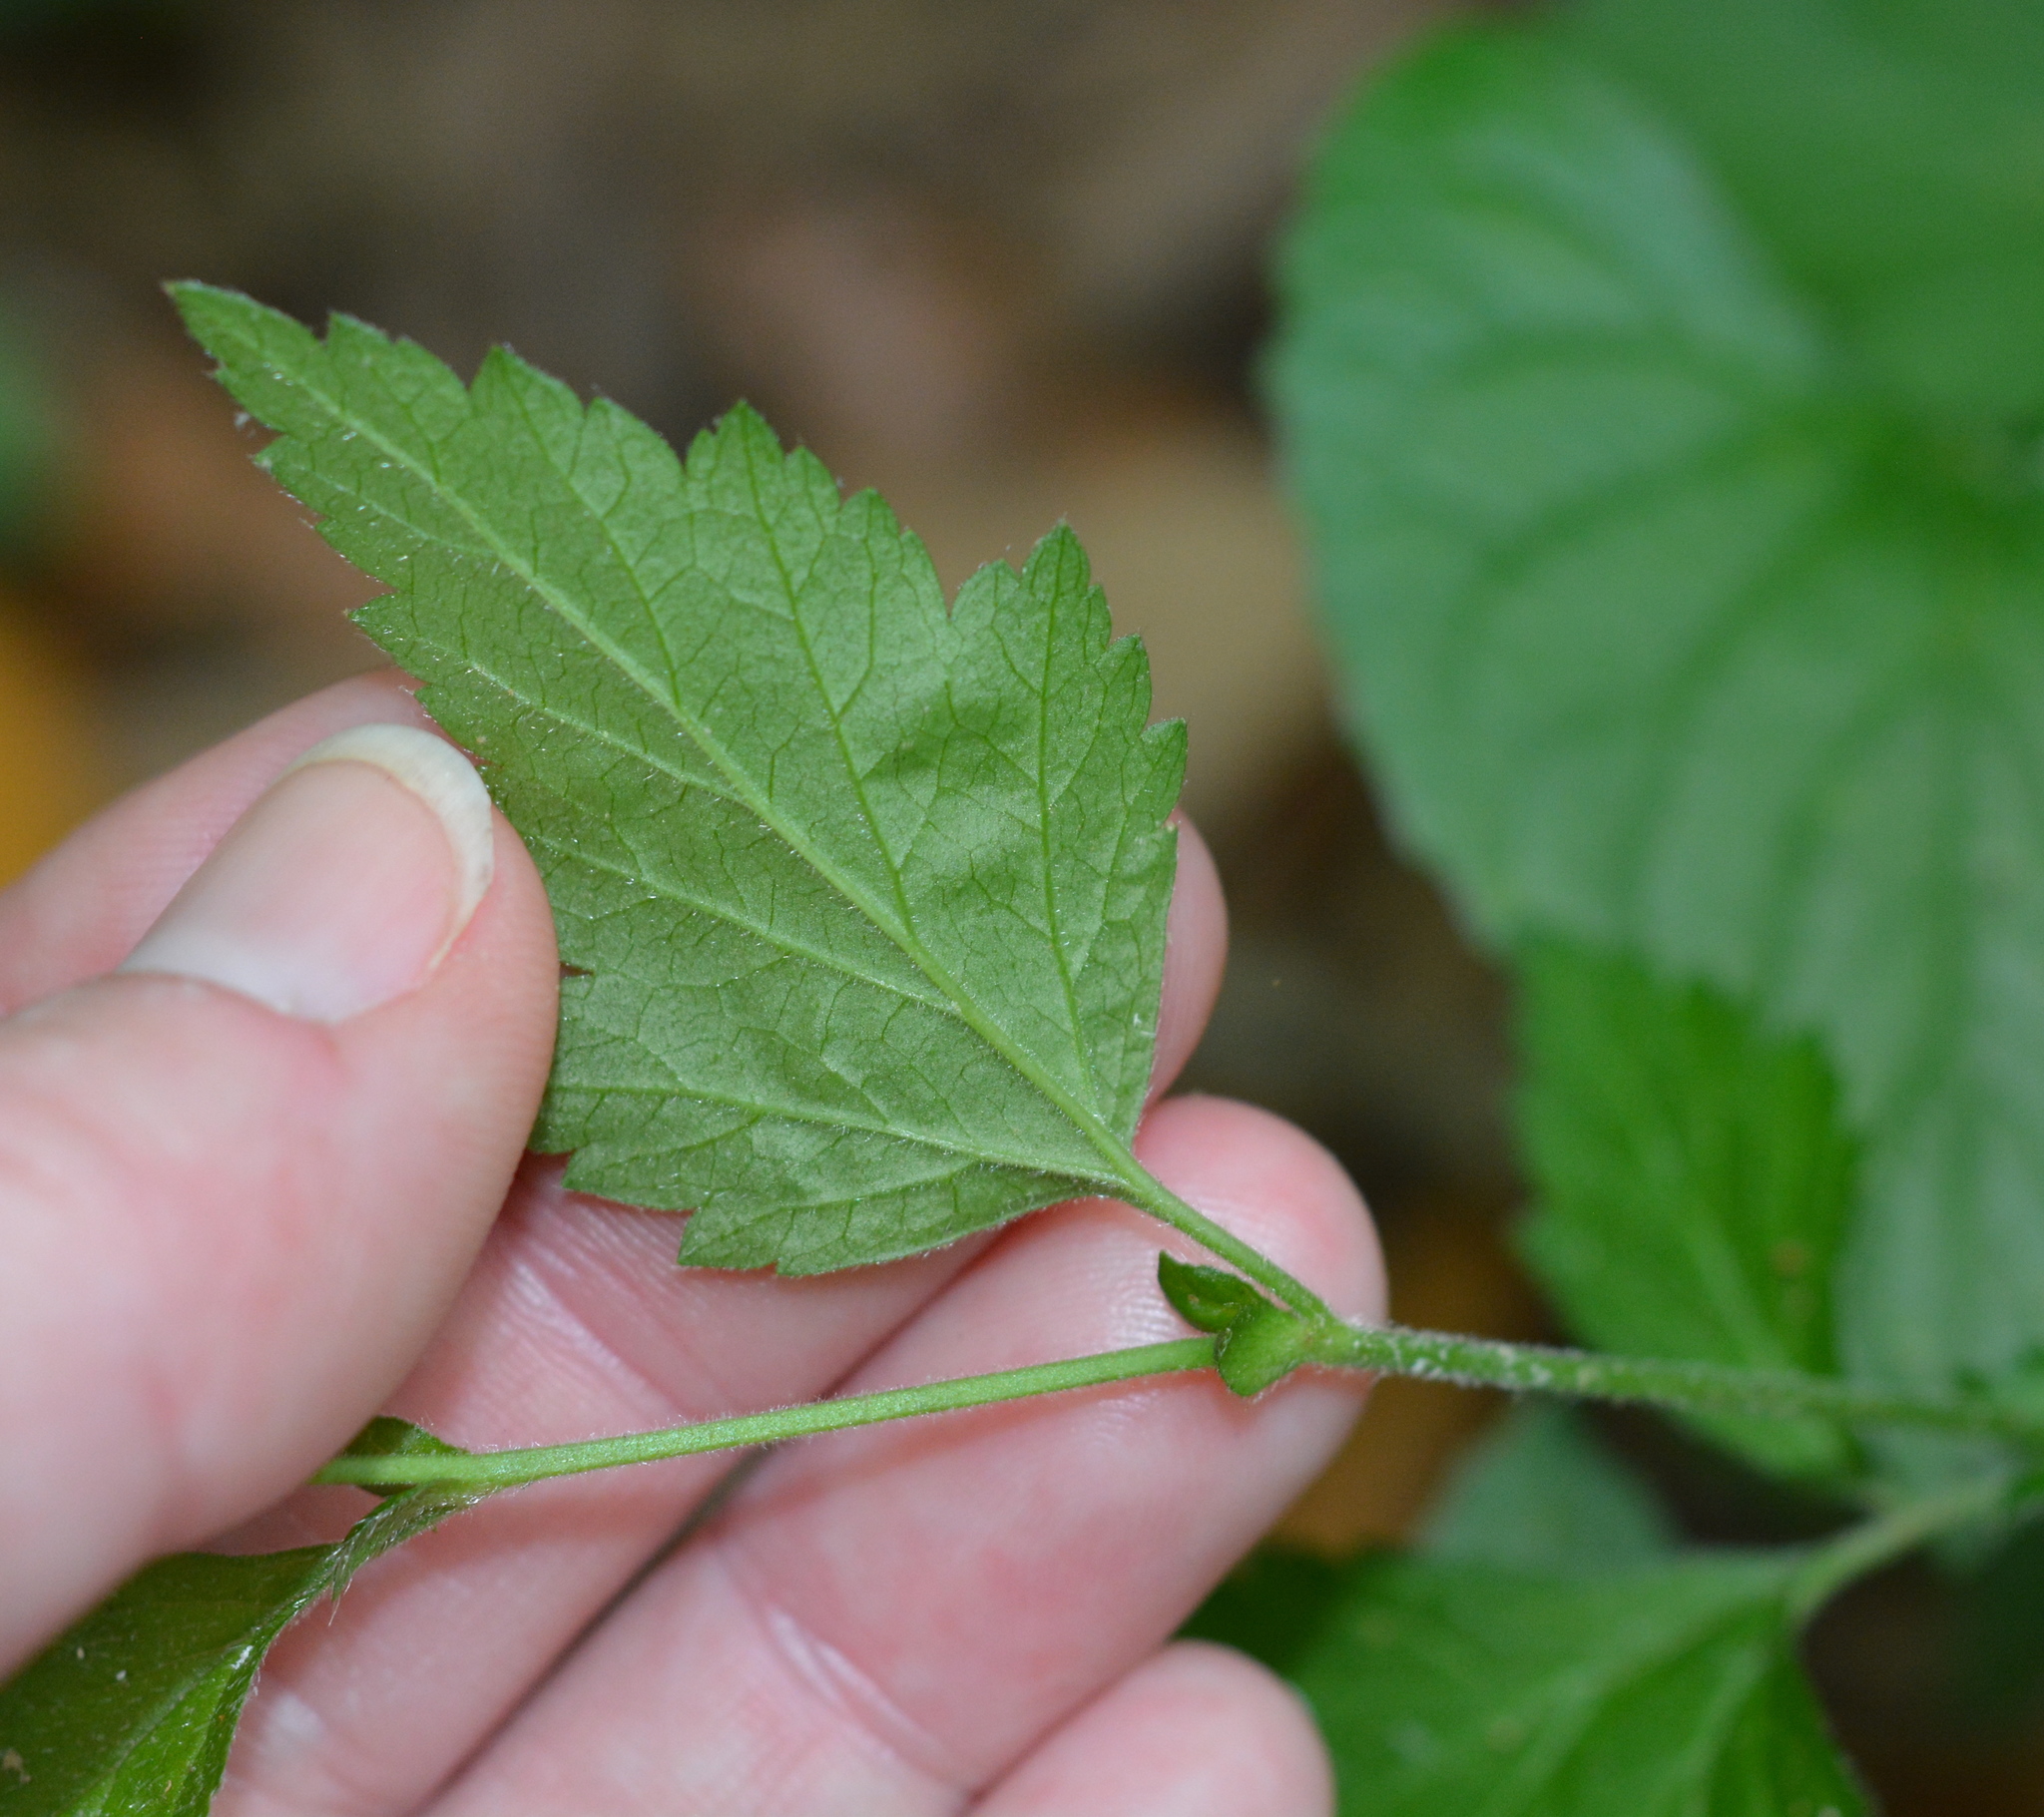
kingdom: Plantae
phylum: Tracheophyta
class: Magnoliopsida
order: Rosales
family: Rosaceae
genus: Geum
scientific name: Geum canadense
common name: White avens
